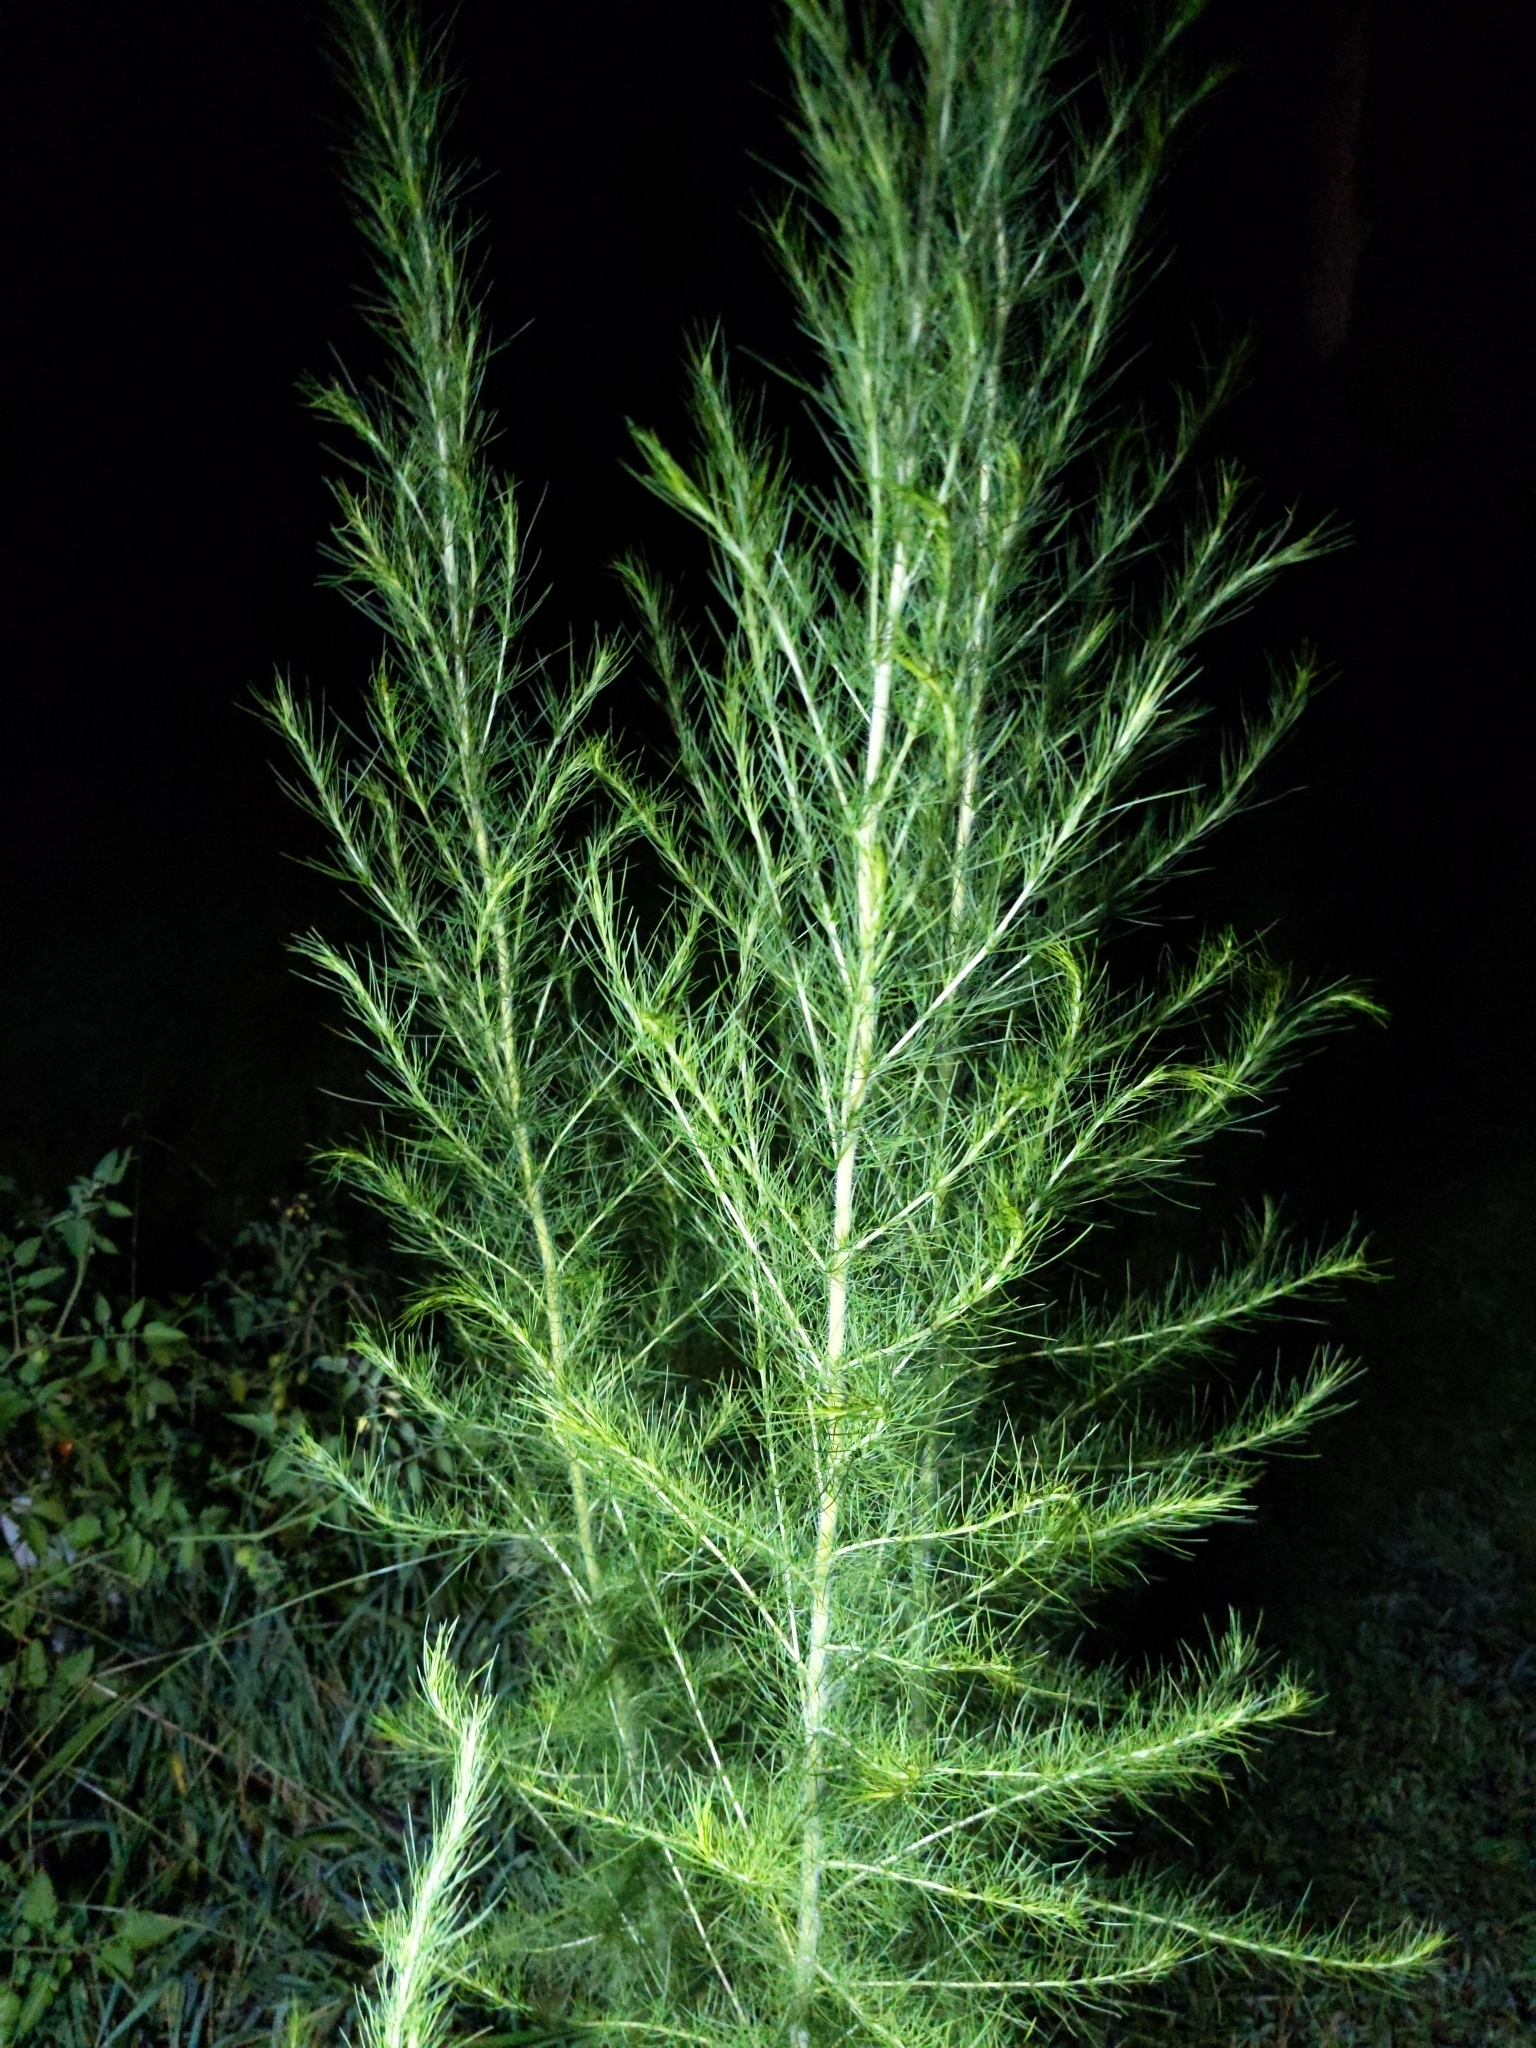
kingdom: Plantae
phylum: Tracheophyta
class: Magnoliopsida
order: Asterales
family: Asteraceae
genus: Eupatorium
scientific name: Eupatorium capillifolium
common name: Dog-fennel
